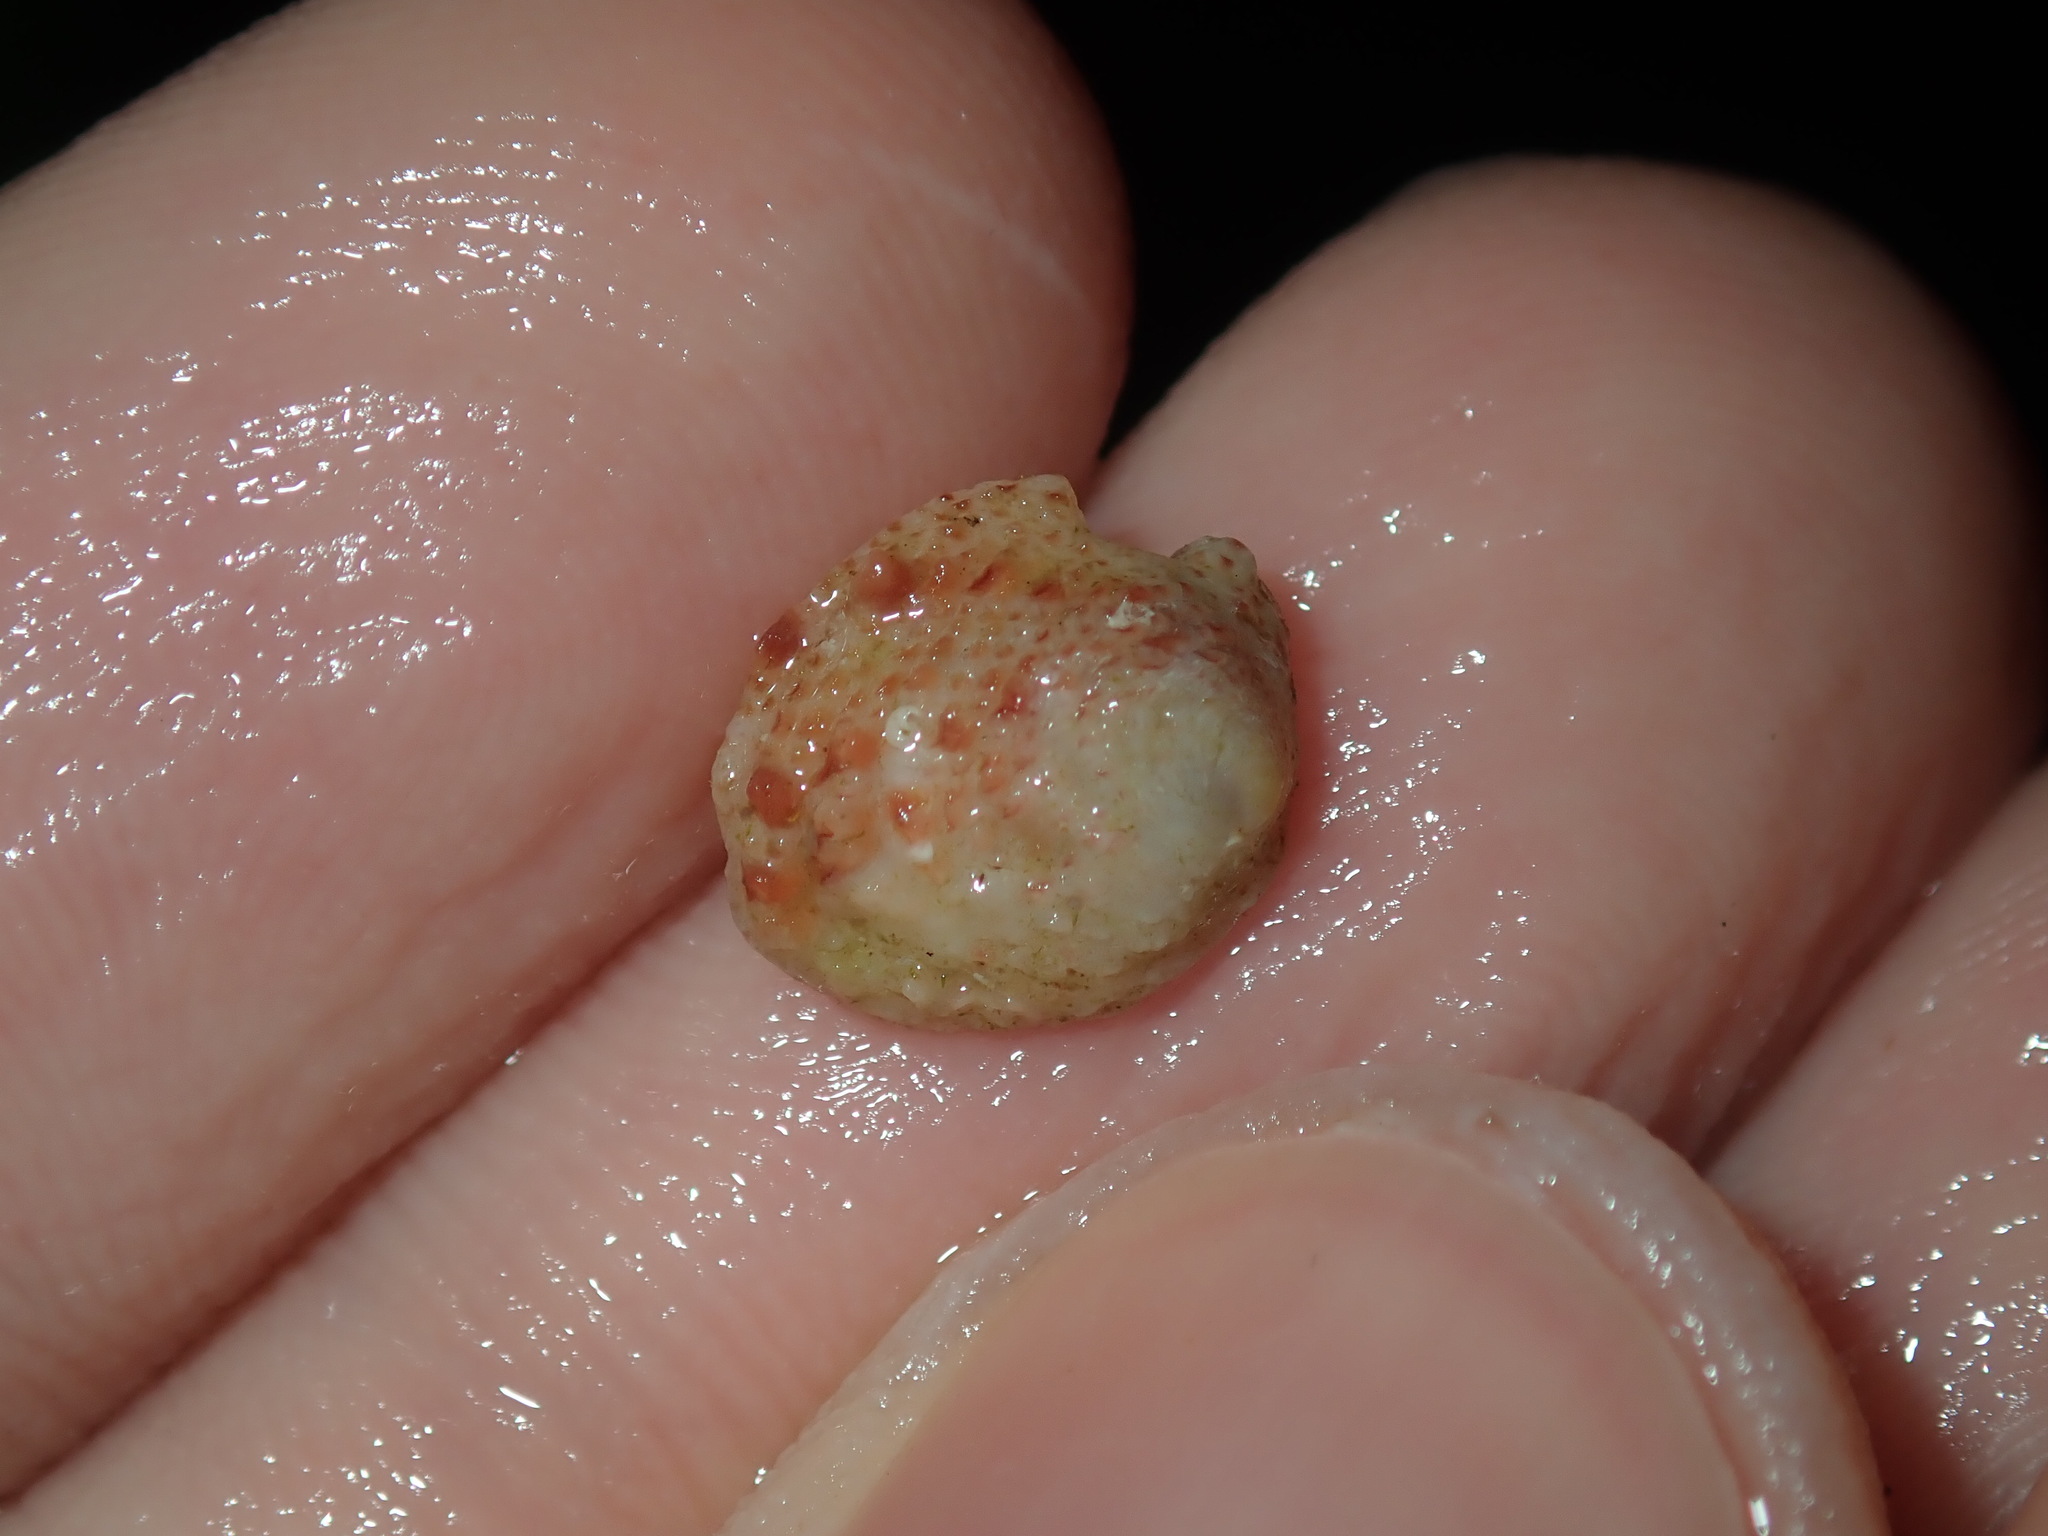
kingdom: Animalia
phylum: Mollusca
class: Bivalvia
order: Venerida
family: Chamidae
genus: Chama
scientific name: Chama asperella
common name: Mollusca
